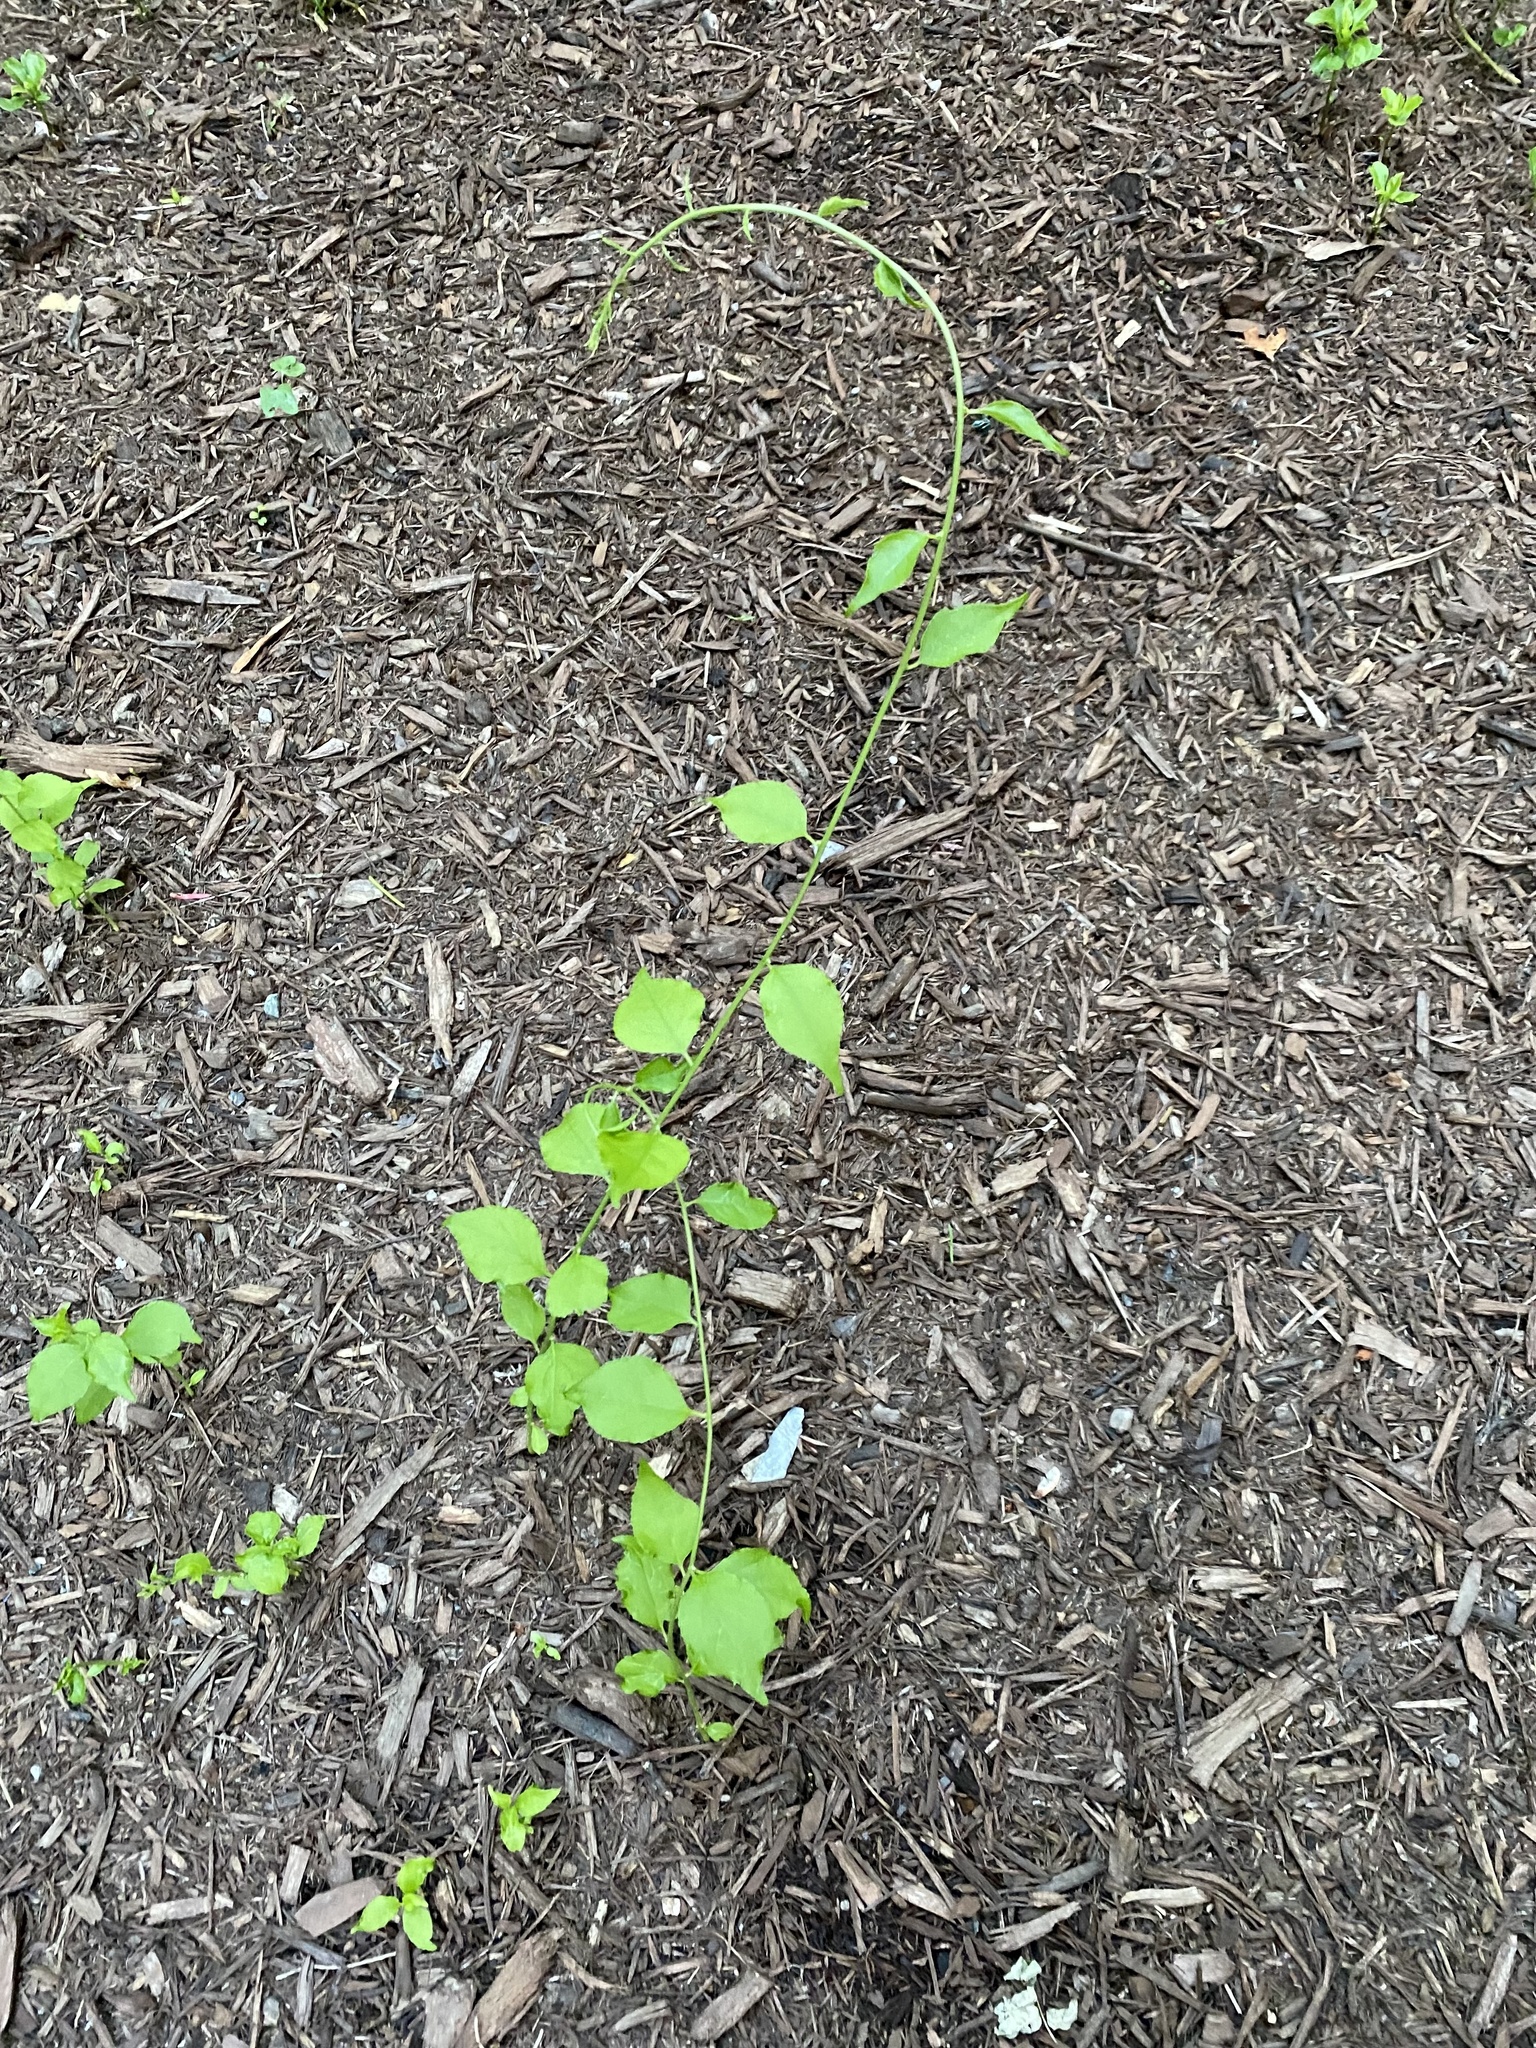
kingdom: Plantae
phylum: Tracheophyta
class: Magnoliopsida
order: Celastrales
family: Celastraceae
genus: Celastrus
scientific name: Celastrus orbiculatus
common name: Oriental bittersweet
